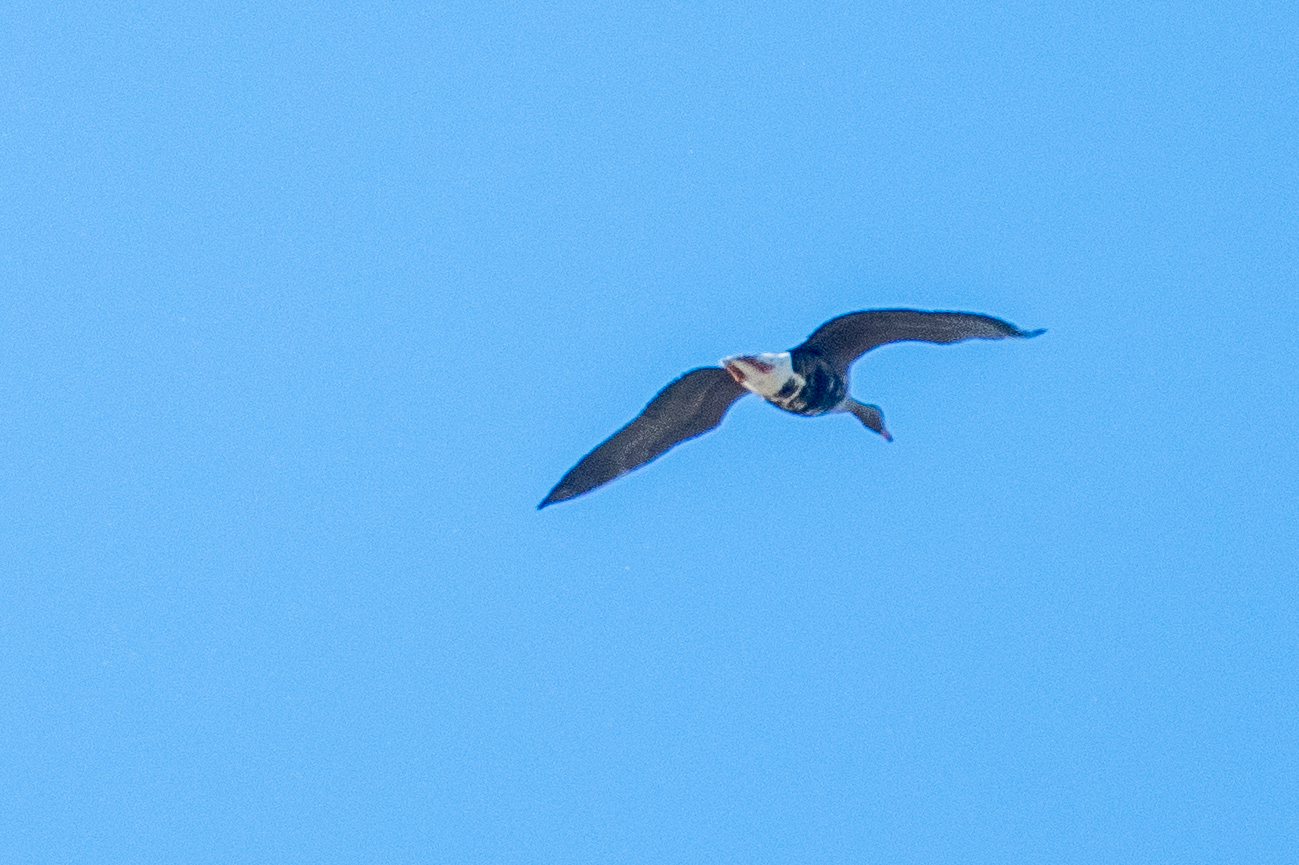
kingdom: Animalia
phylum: Chordata
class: Aves
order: Anseriformes
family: Anatidae
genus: Anser
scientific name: Anser albifrons
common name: Greater white-fronted goose
